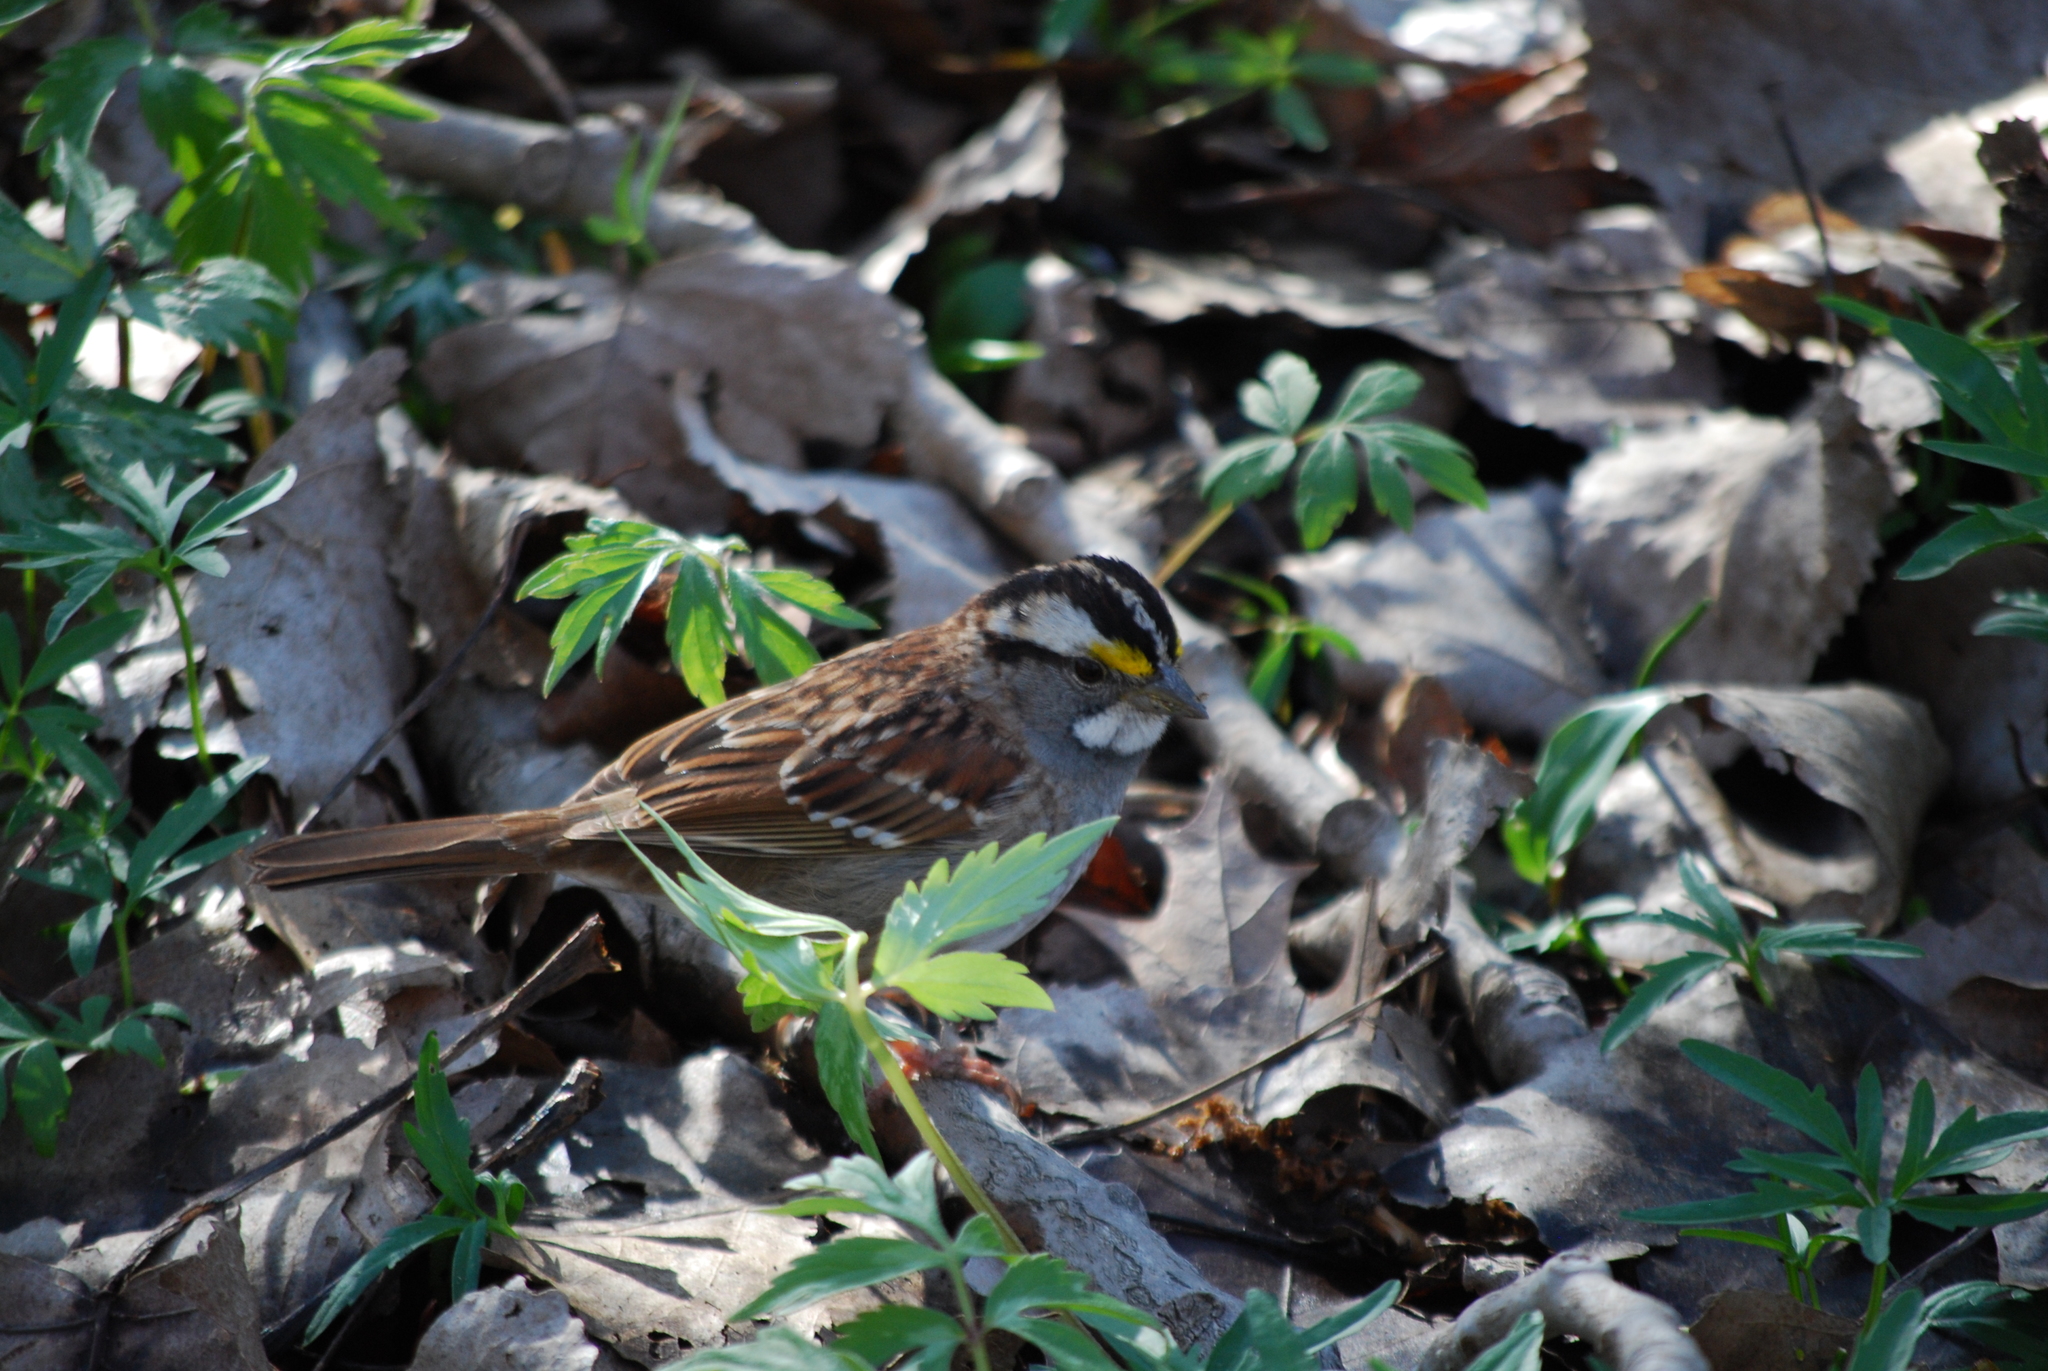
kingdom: Animalia
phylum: Chordata
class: Aves
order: Passeriformes
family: Passerellidae
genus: Zonotrichia
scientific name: Zonotrichia albicollis
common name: White-throated sparrow
